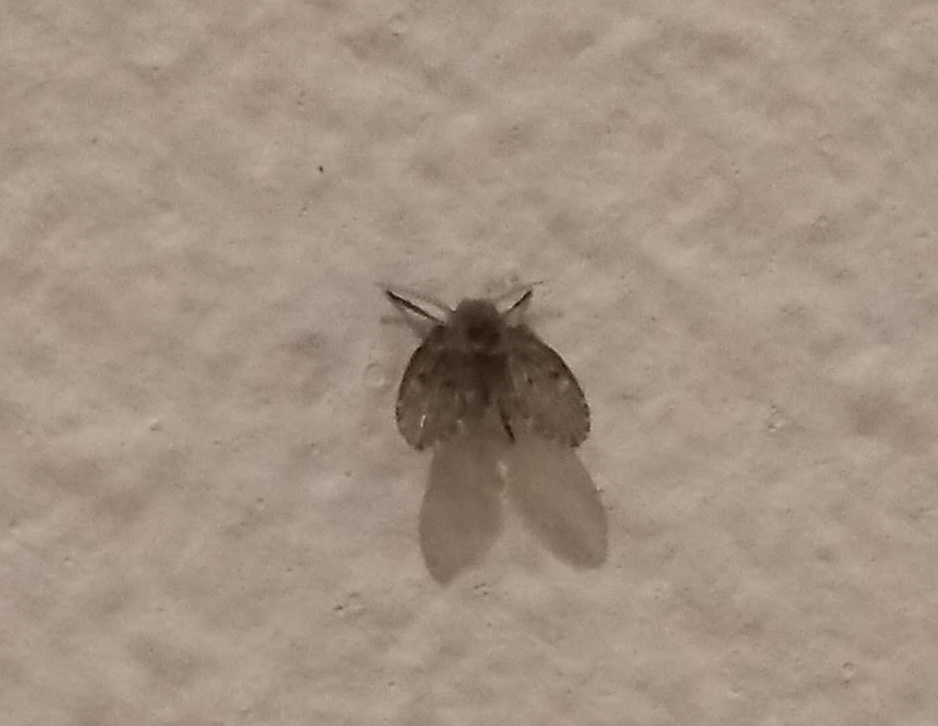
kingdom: Animalia
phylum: Arthropoda
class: Insecta
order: Diptera
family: Psychodidae
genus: Clogmia
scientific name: Clogmia albipunctatus
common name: White-spotted moth fly
